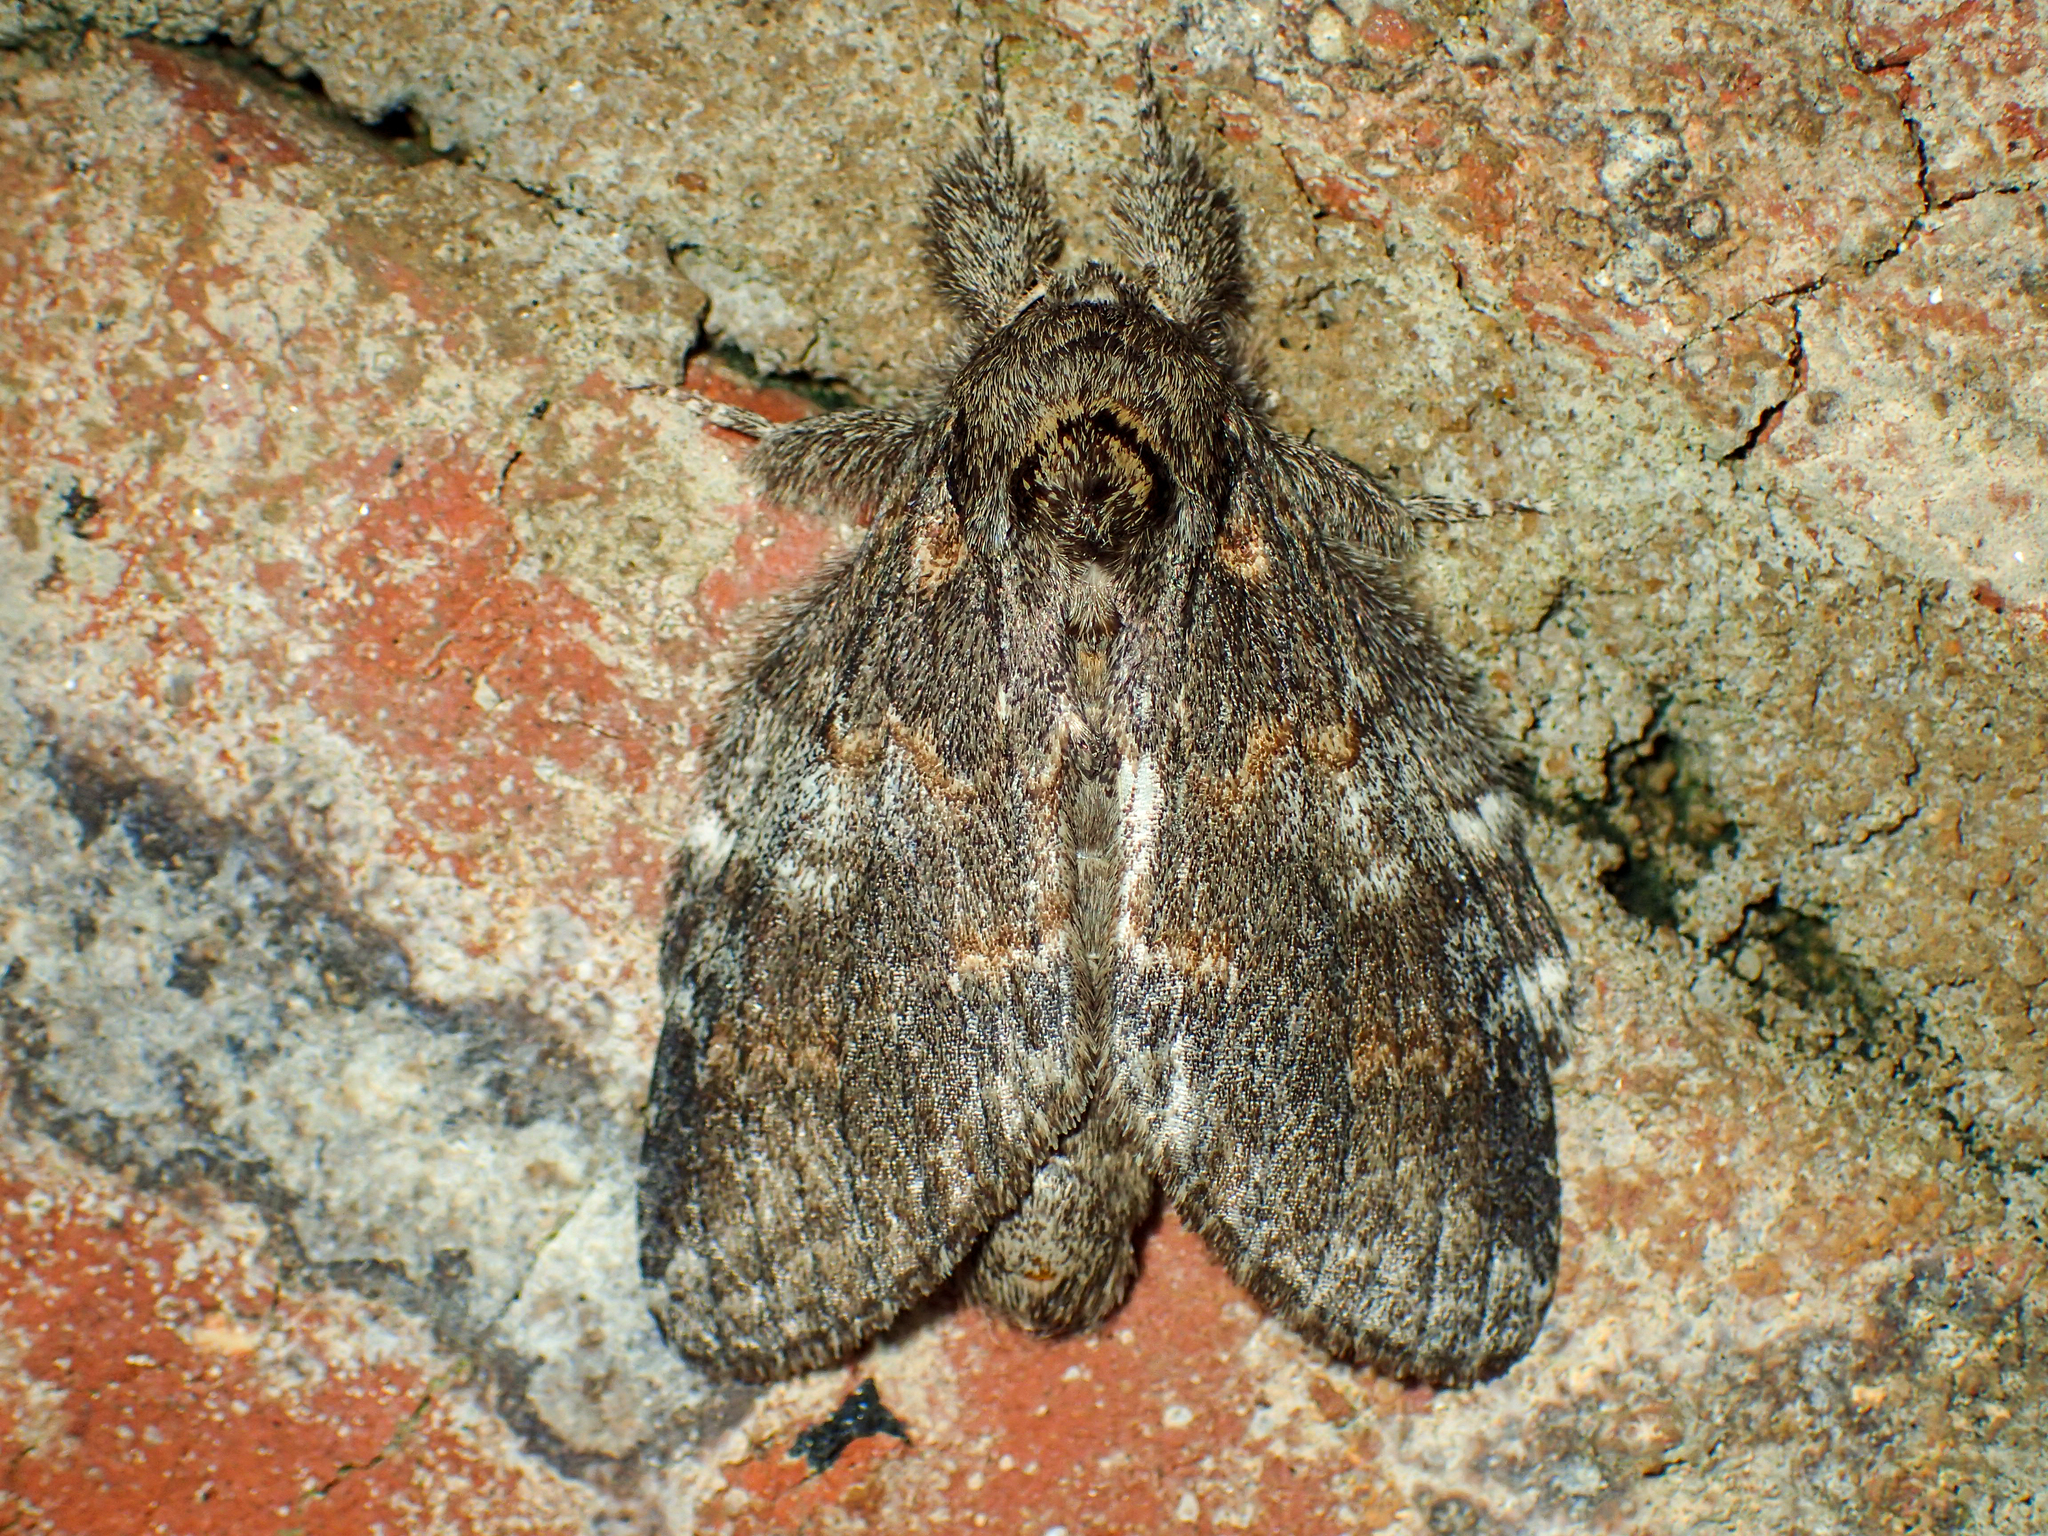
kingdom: Animalia
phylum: Arthropoda
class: Insecta
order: Lepidoptera
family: Notodontidae
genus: Peridea
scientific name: Peridea angulosa
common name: Angulose prominent
